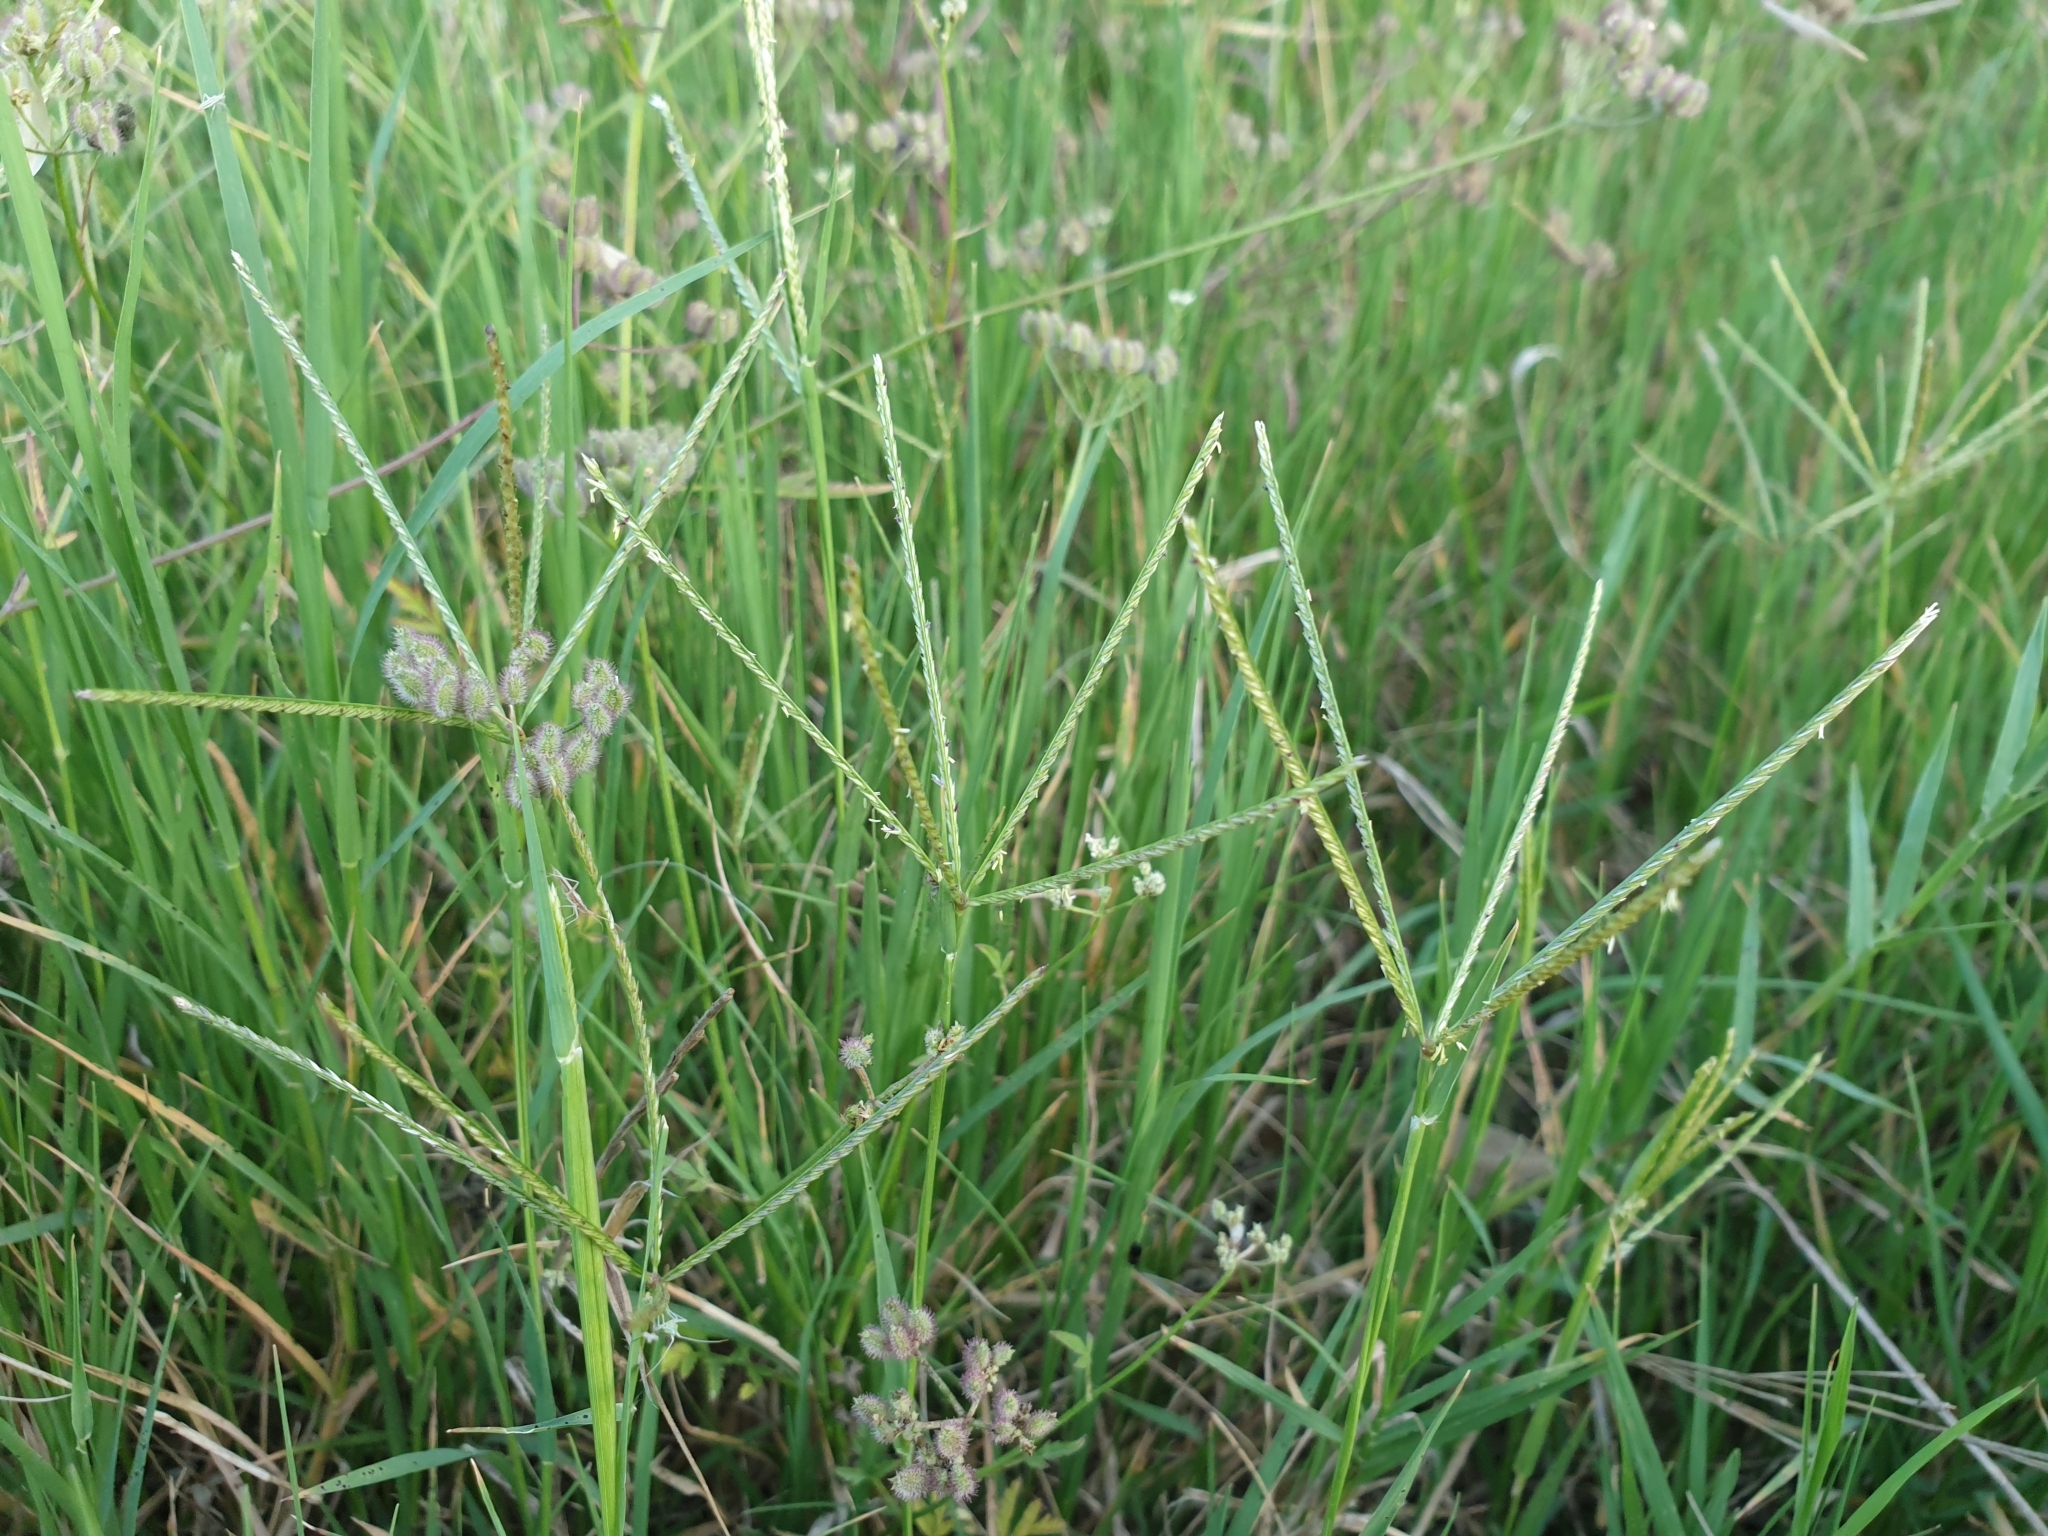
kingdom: Plantae
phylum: Tracheophyta
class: Liliopsida
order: Poales
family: Poaceae
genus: Cynodon
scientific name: Cynodon dactylon
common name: Bermuda grass
